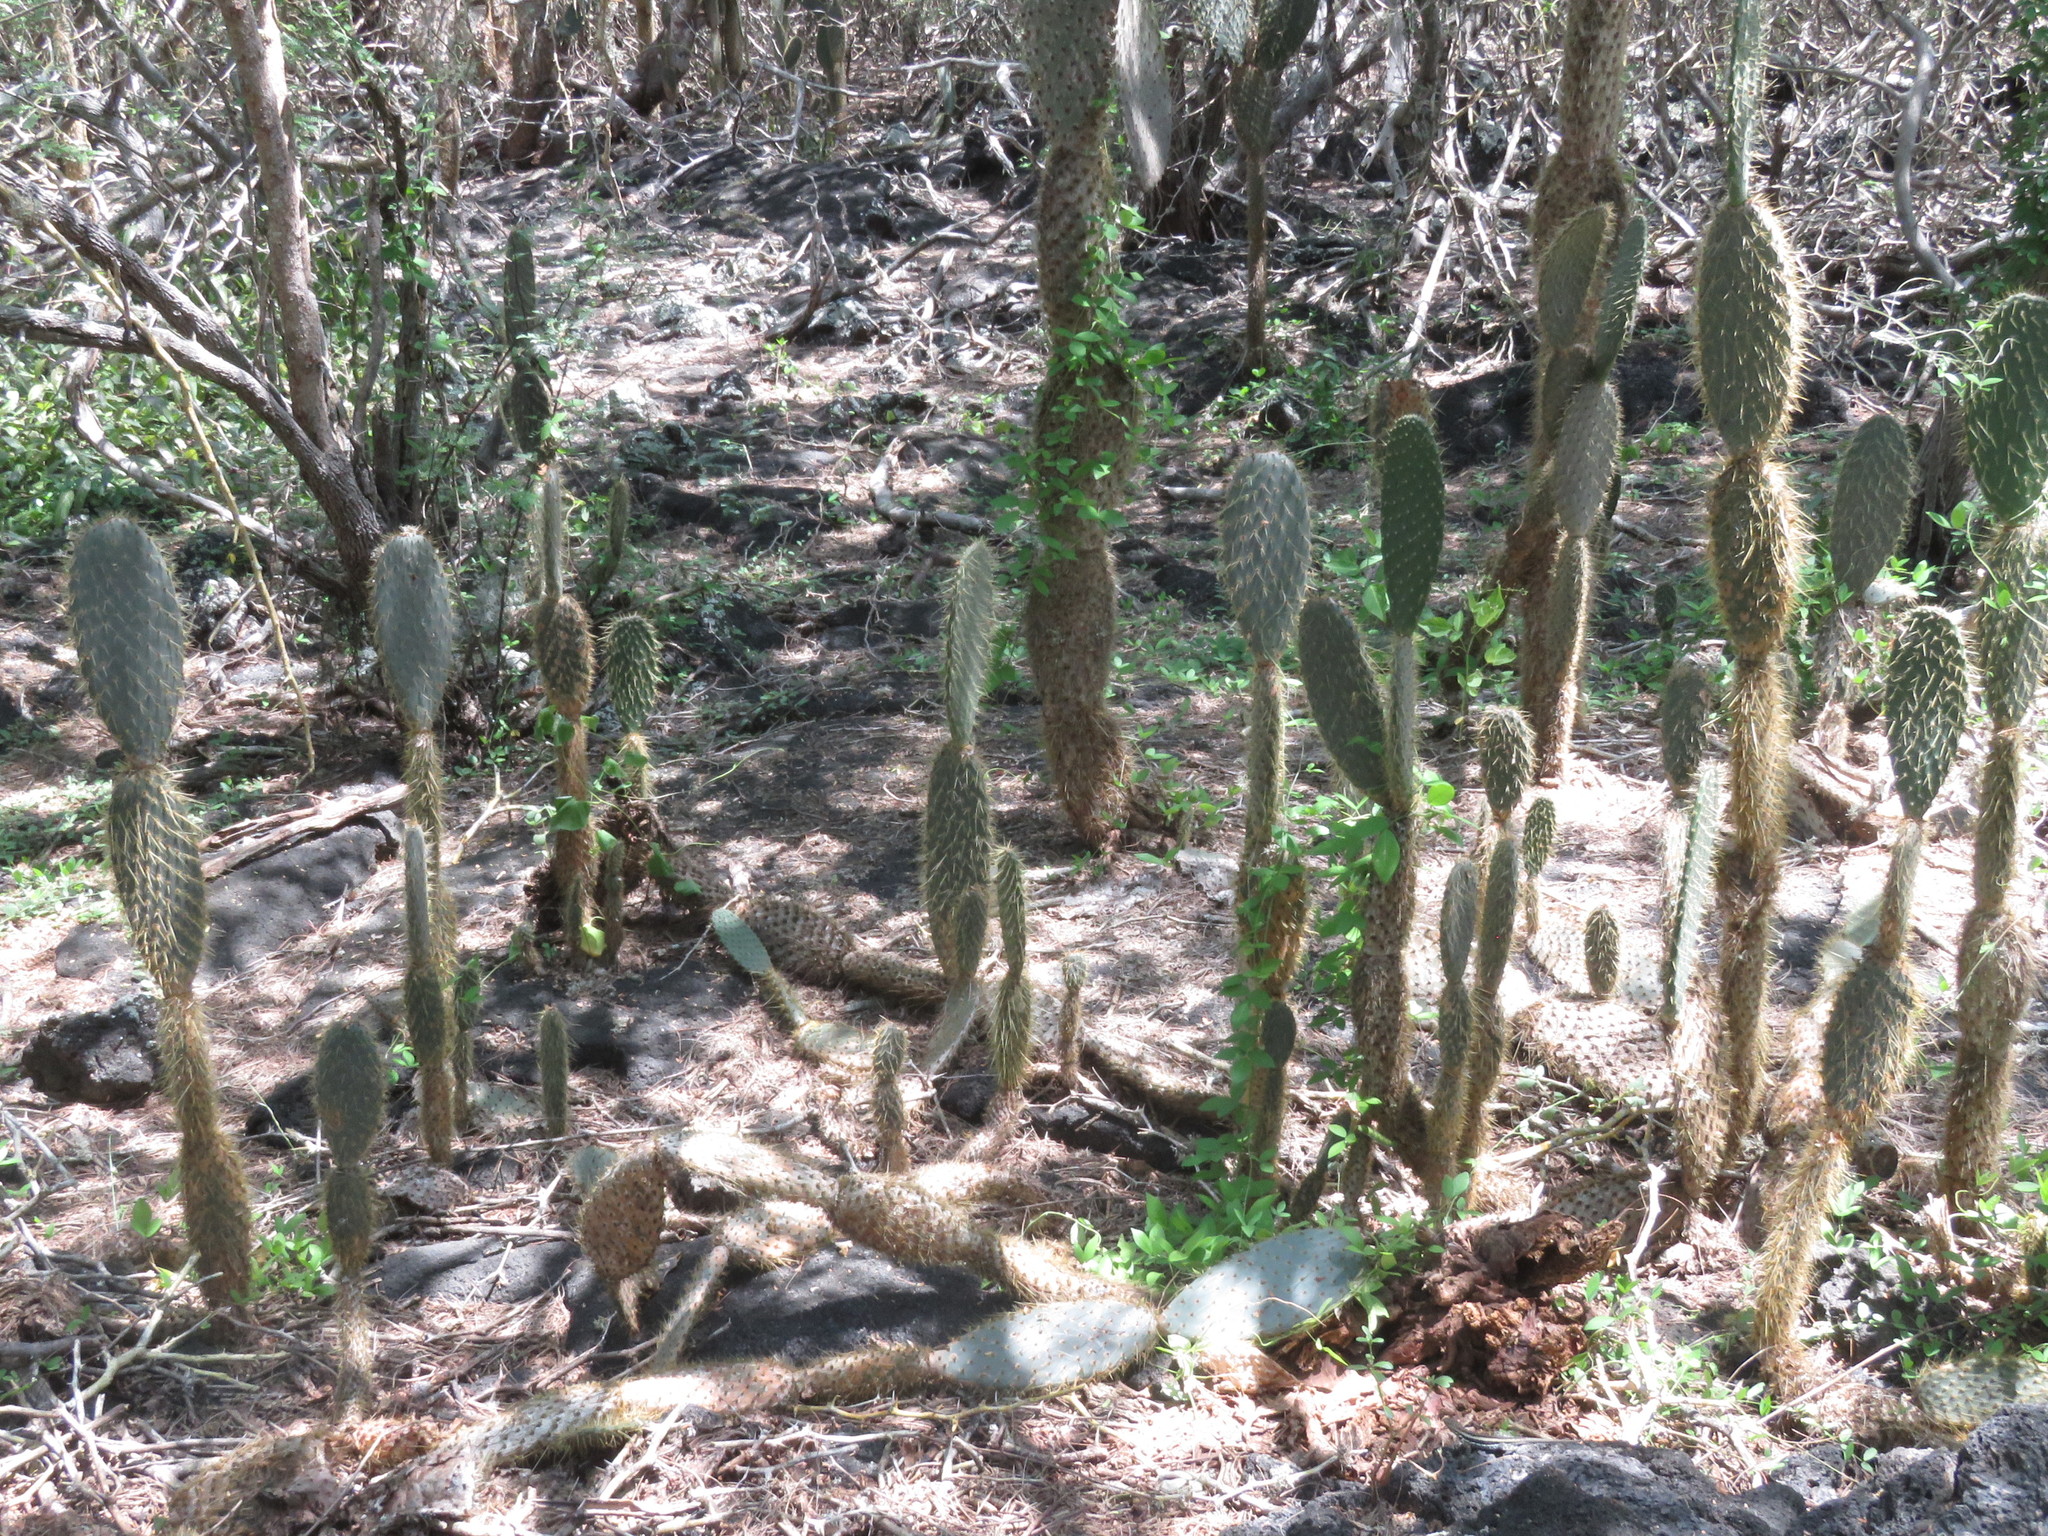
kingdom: Plantae
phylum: Tracheophyta
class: Magnoliopsida
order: Caryophyllales
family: Cactaceae
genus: Opuntia
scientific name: Opuntia galapageia
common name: Galápagos prickly pear
